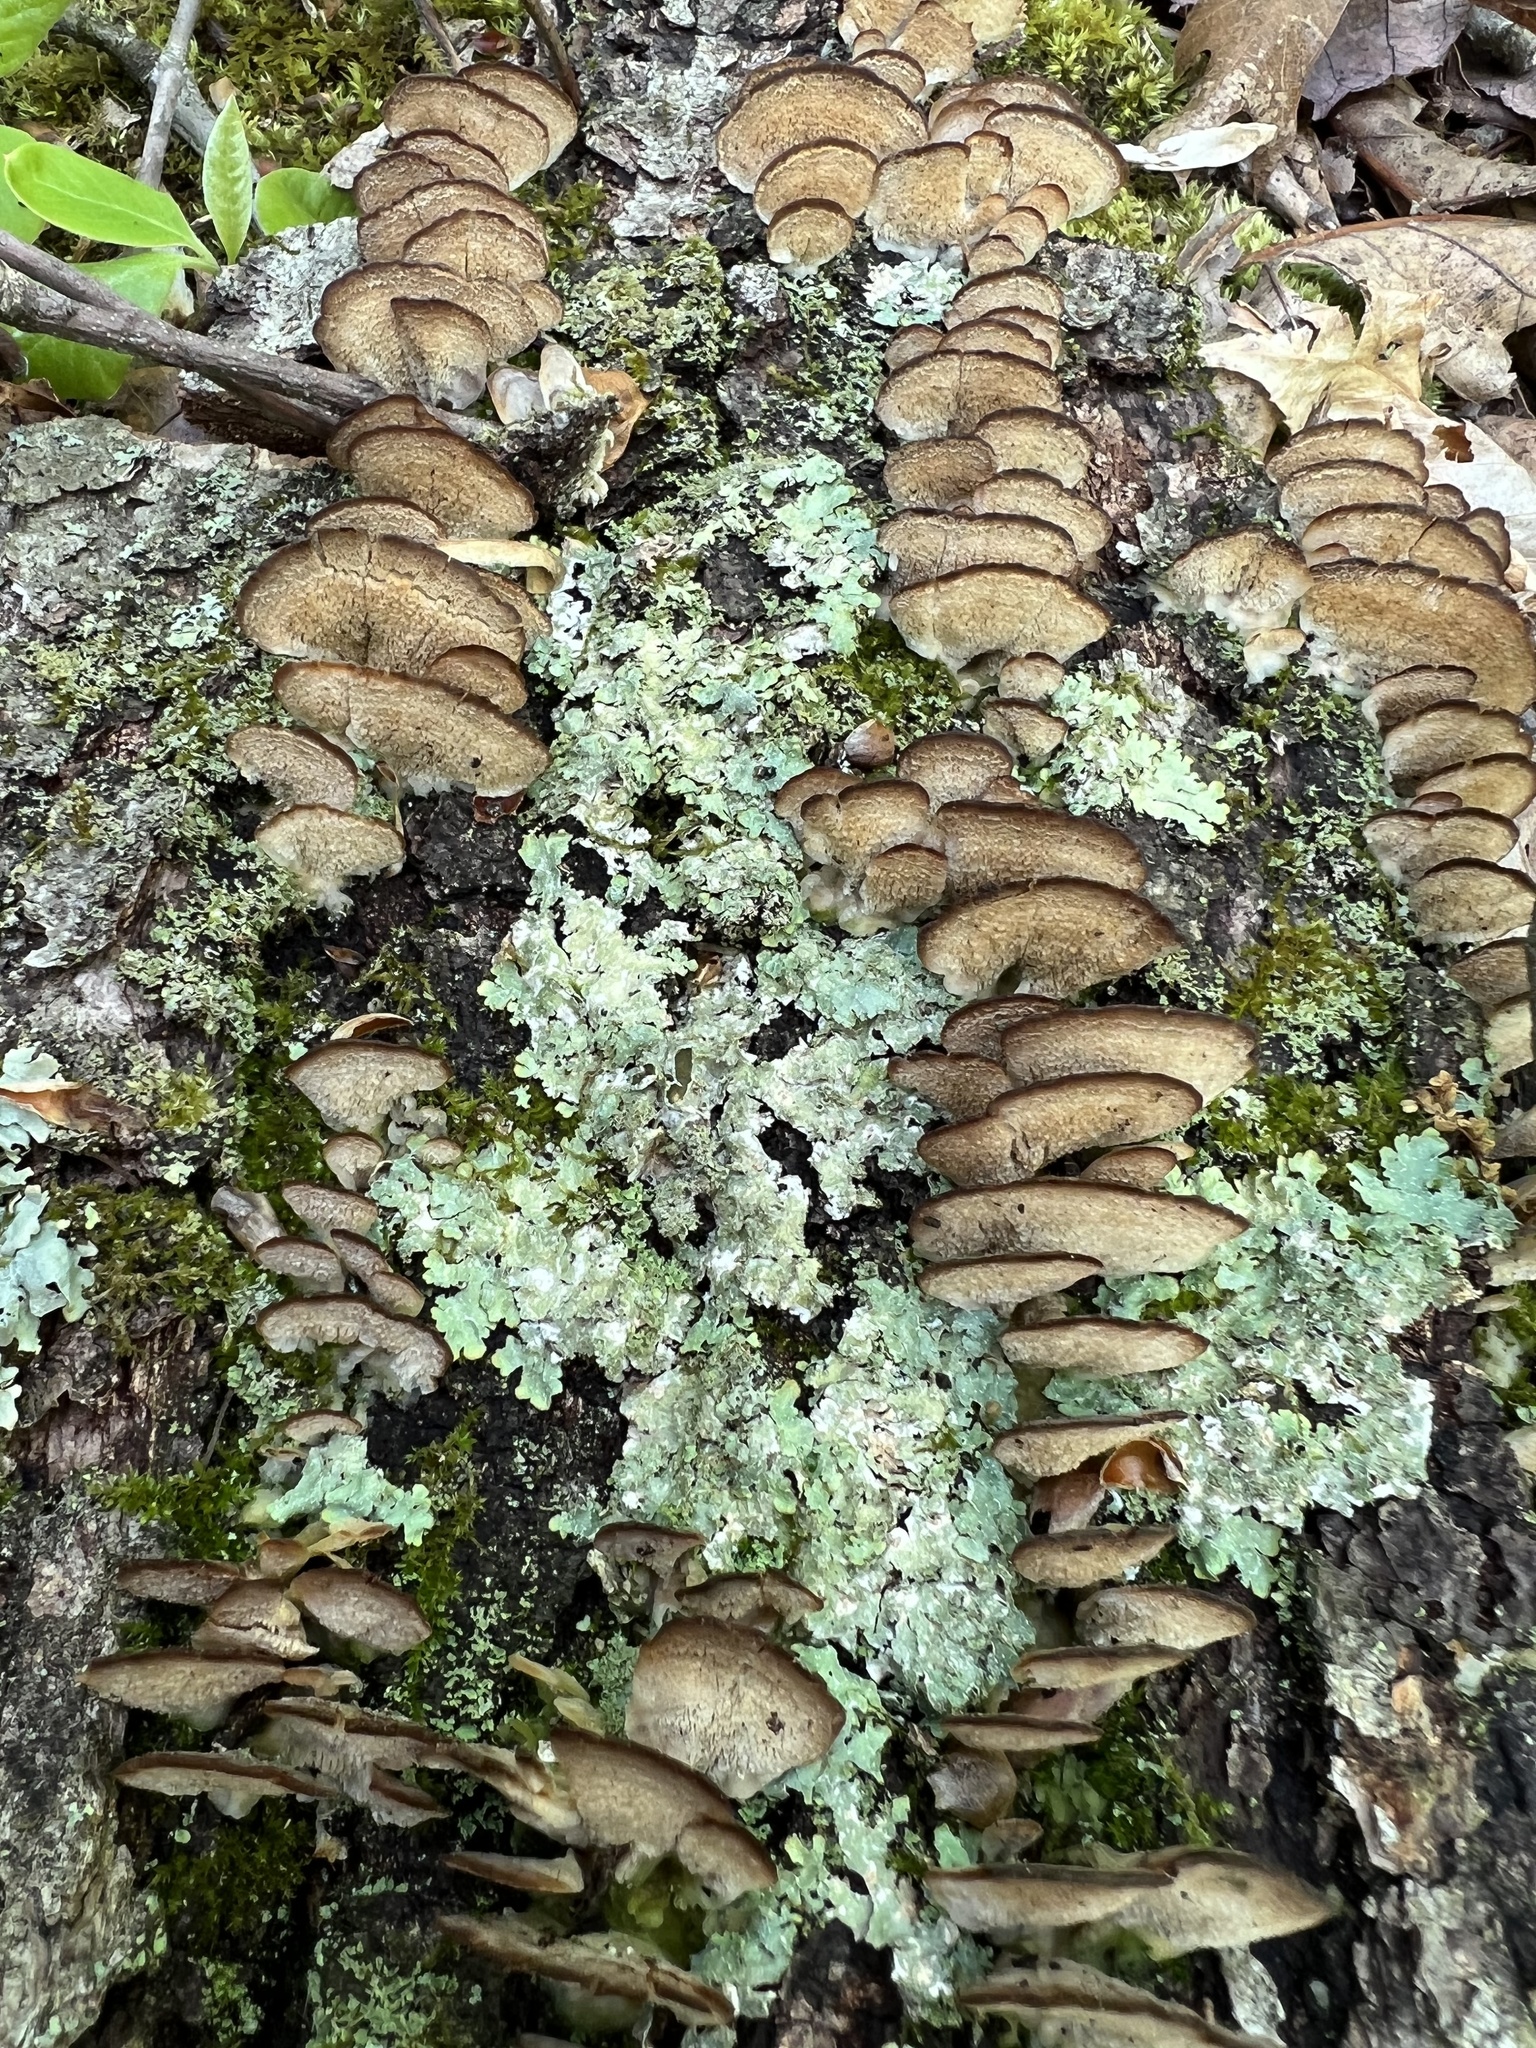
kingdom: Fungi
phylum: Basidiomycota
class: Agaricomycetes
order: Hymenochaetales
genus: Trichaptum
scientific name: Trichaptum biforme
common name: Violet-toothed polypore
